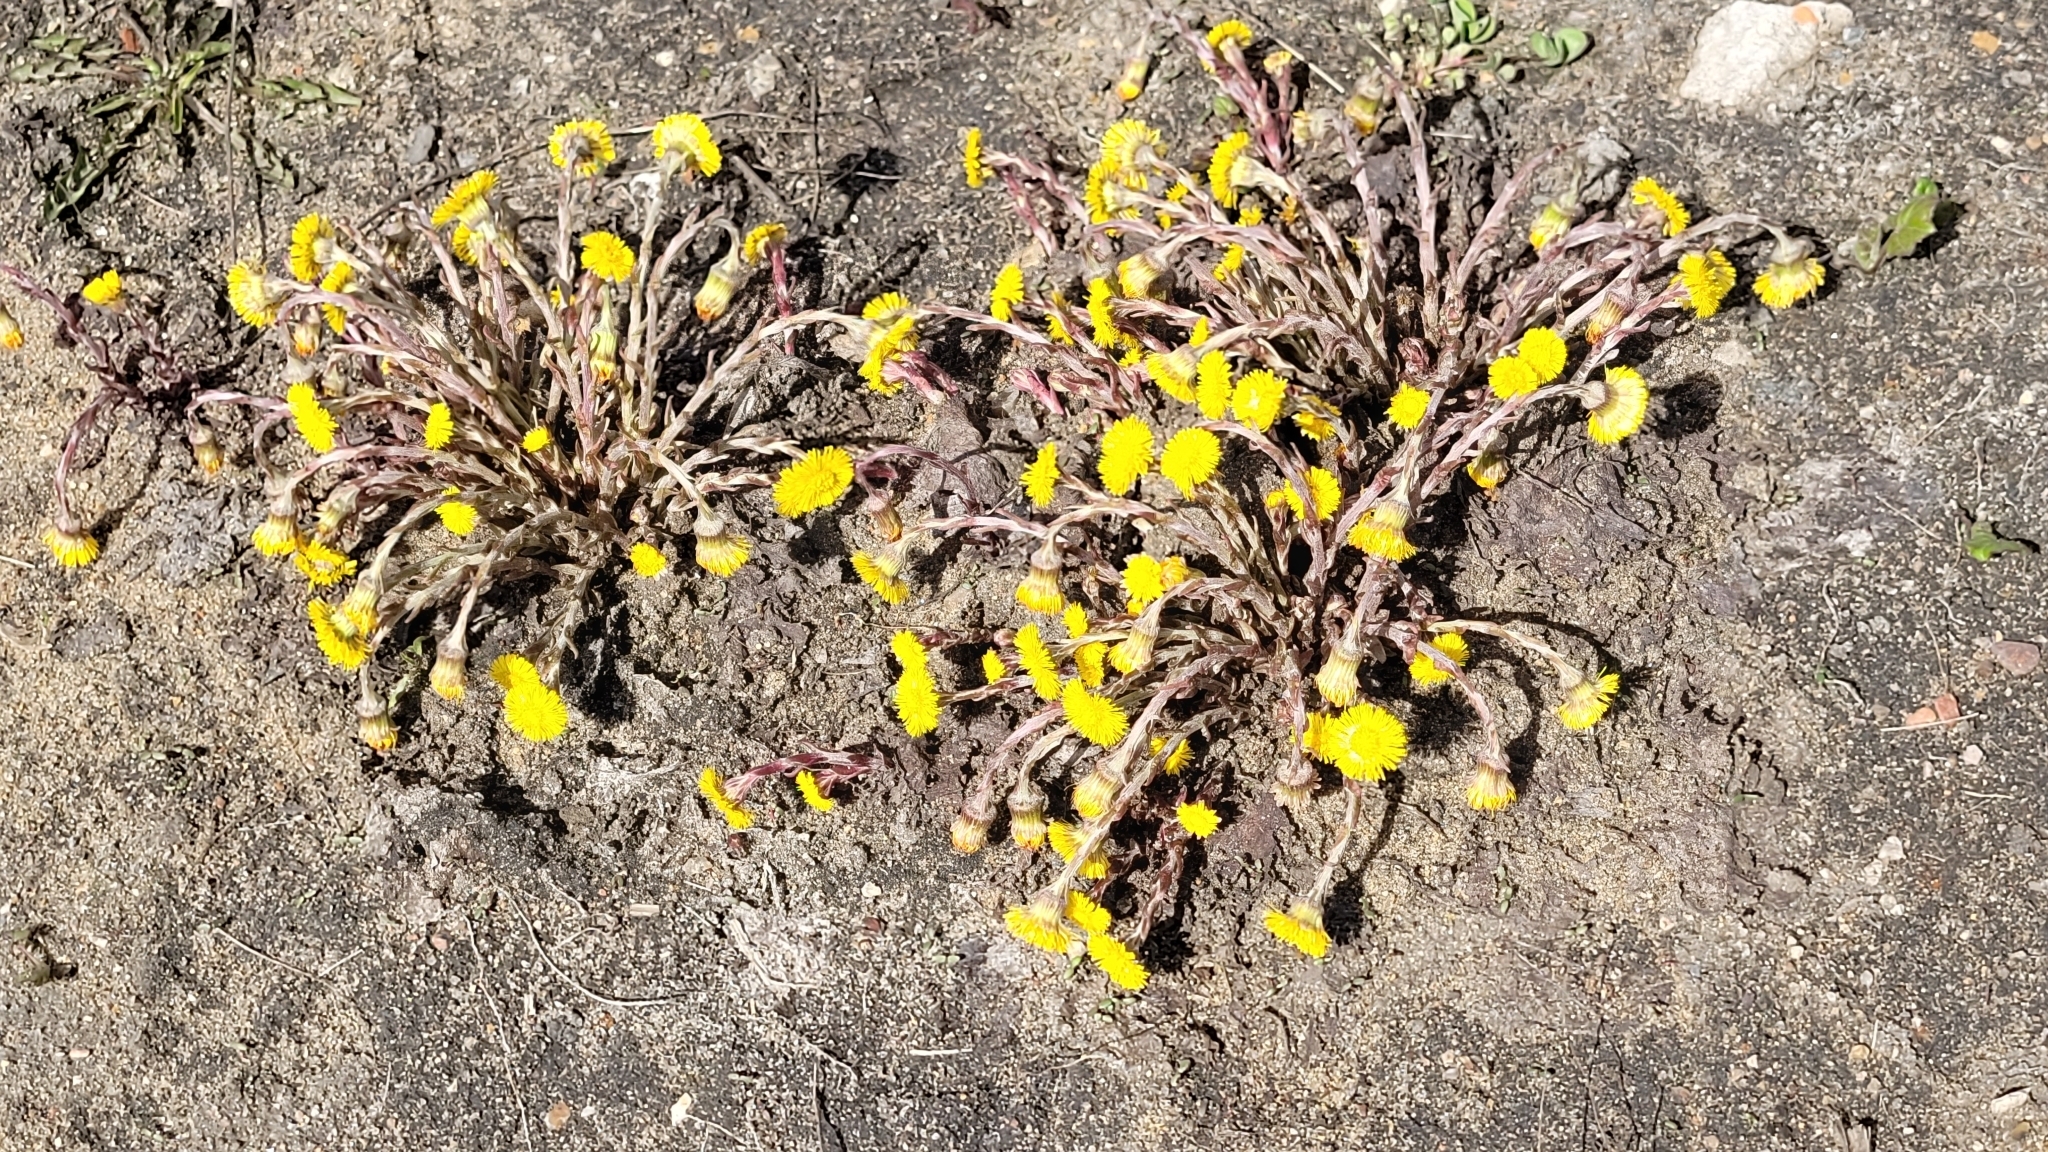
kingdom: Plantae
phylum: Tracheophyta
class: Magnoliopsida
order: Asterales
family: Asteraceae
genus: Tussilago
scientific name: Tussilago farfara
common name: Coltsfoot
